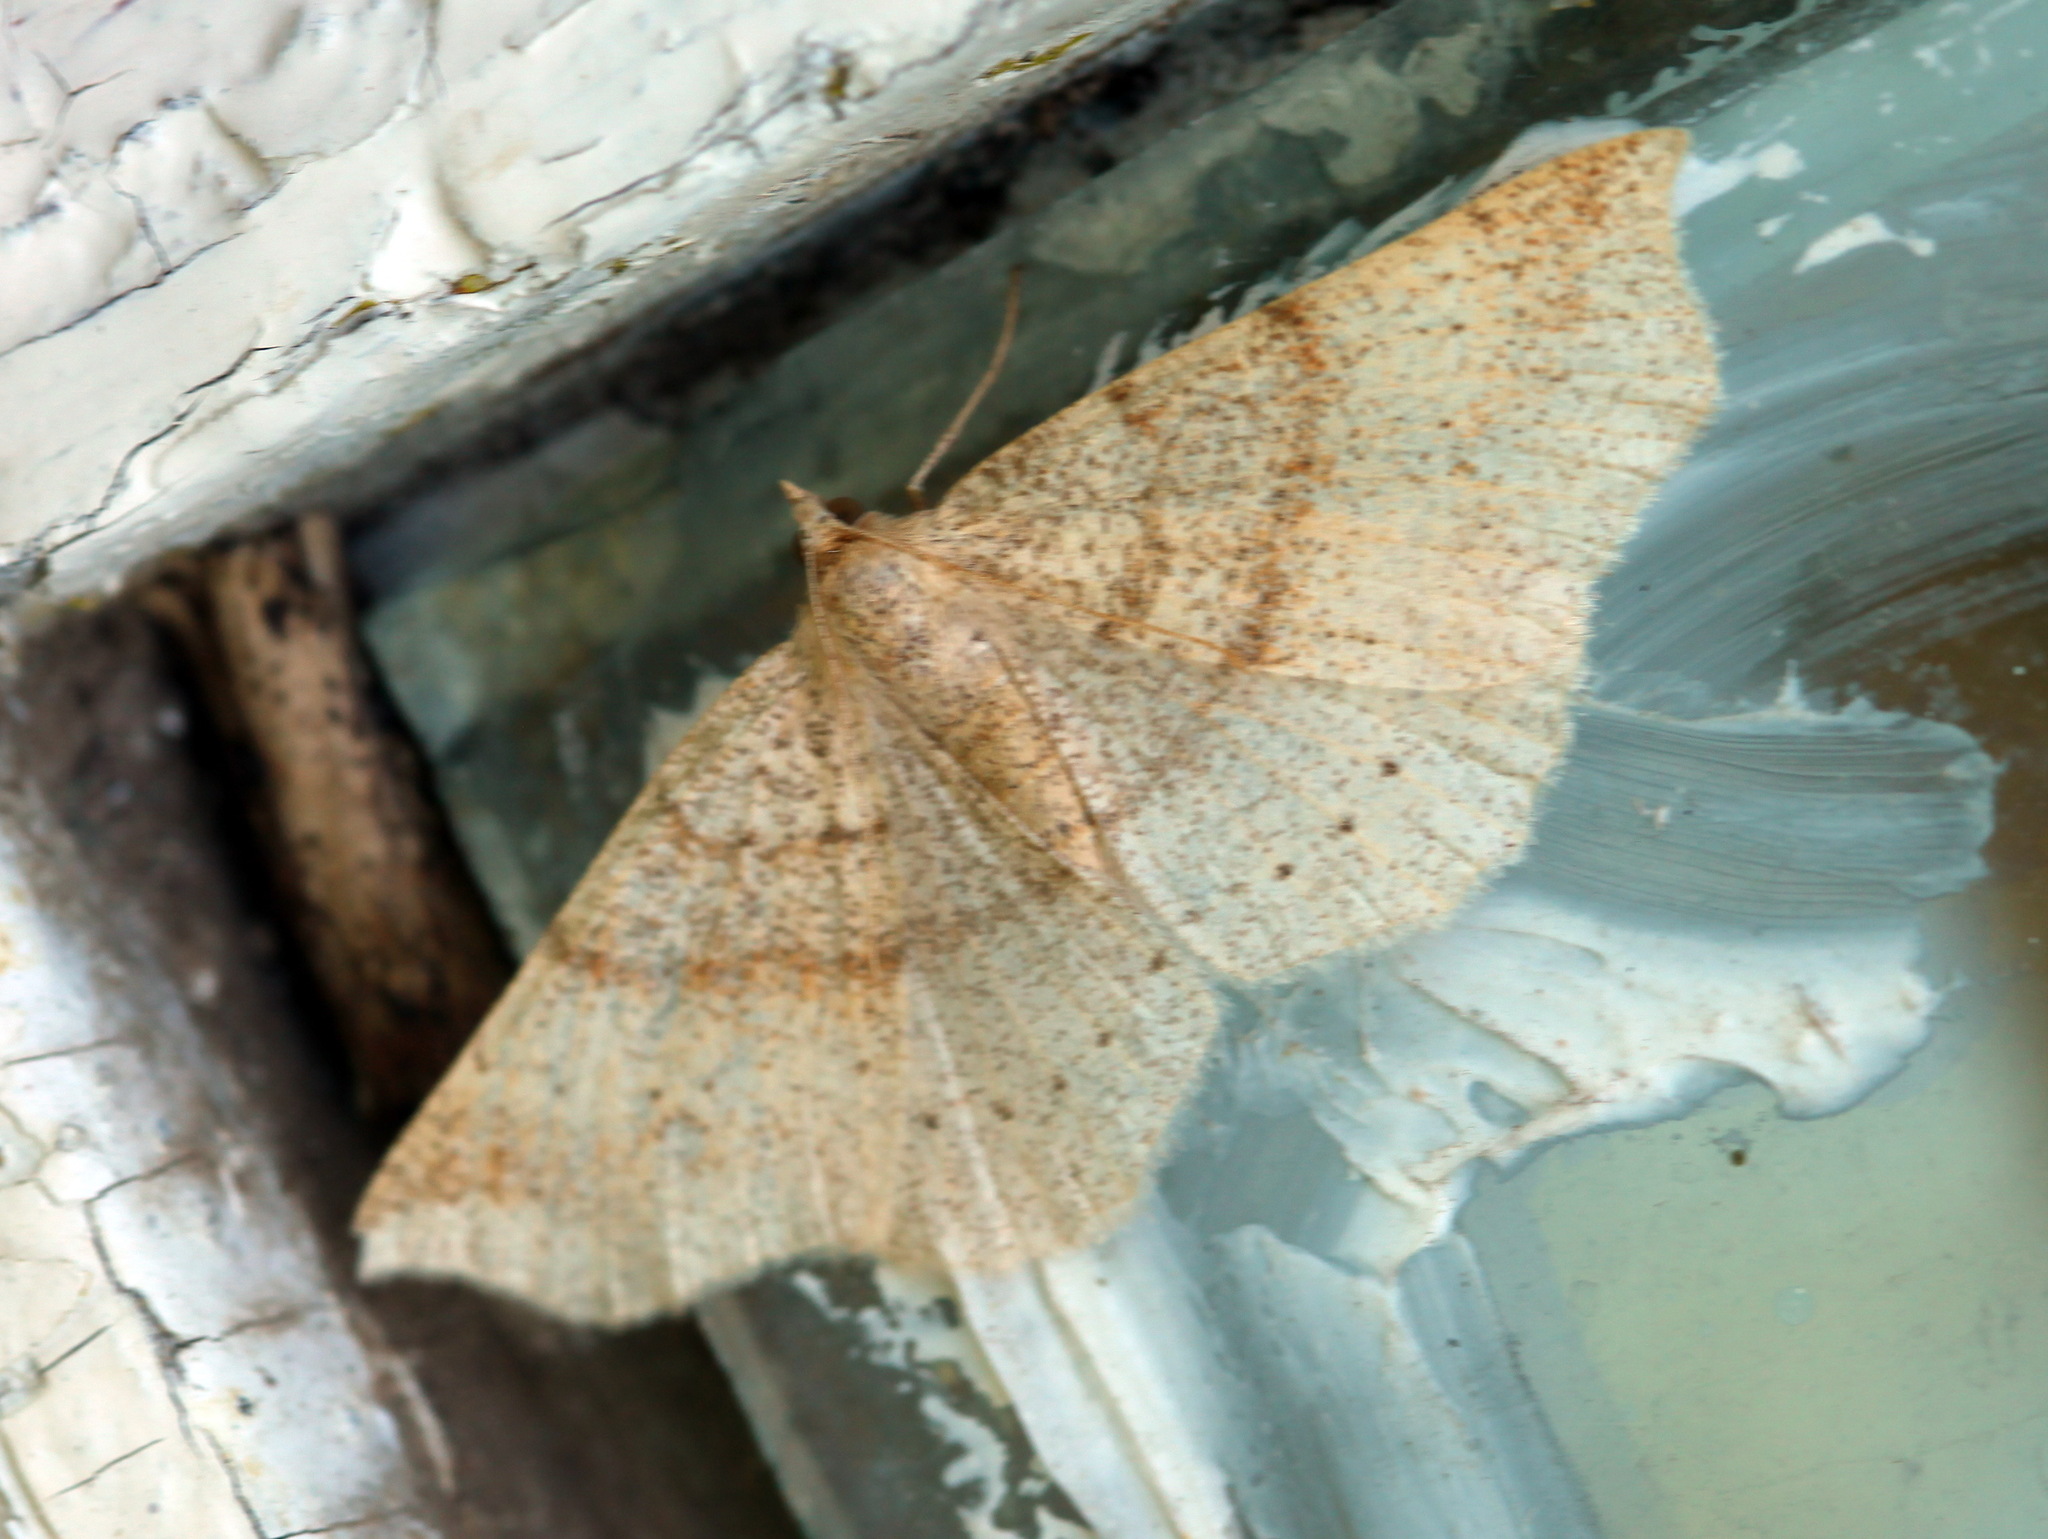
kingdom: Animalia
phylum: Arthropoda
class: Insecta
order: Lepidoptera
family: Geometridae
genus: Xerodes
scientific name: Xerodes albonotaria
